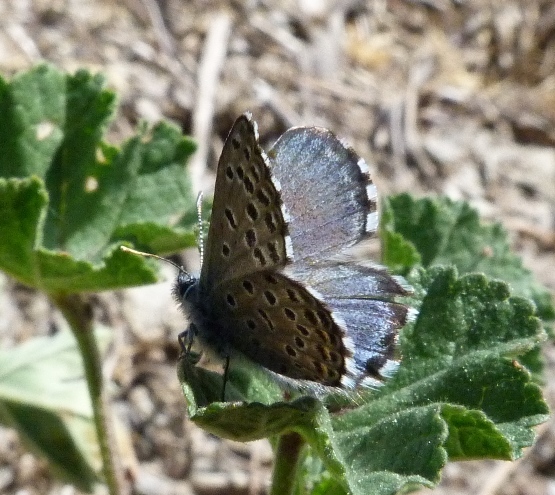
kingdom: Animalia
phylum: Arthropoda
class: Insecta
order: Lepidoptera
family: Lycaenidae
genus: Pseudophilotes
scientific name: Pseudophilotes baton
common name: Baton blue
